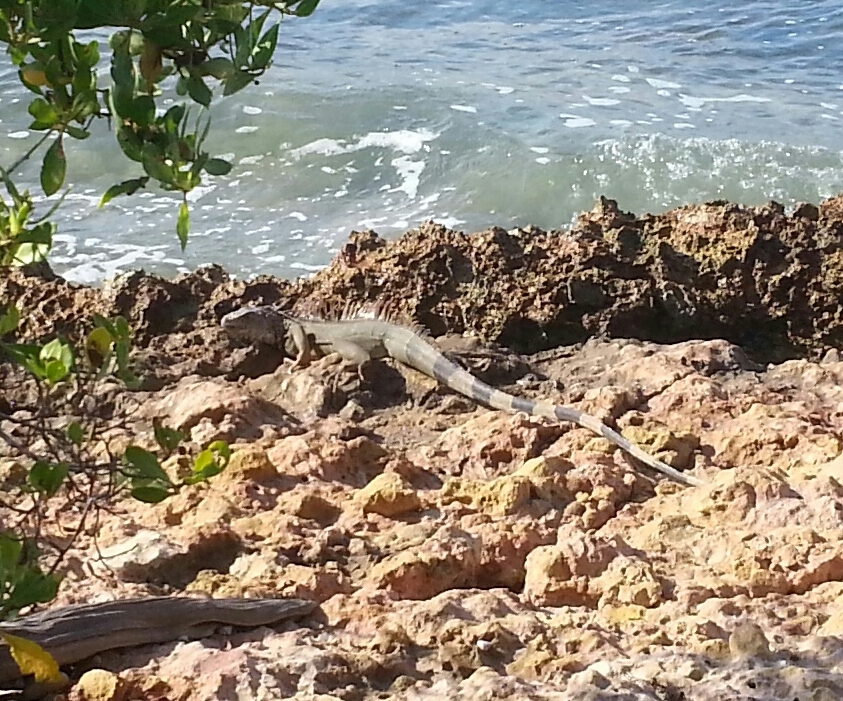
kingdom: Animalia
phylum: Chordata
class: Squamata
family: Iguanidae
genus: Iguana
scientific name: Iguana iguana
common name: Green iguana
